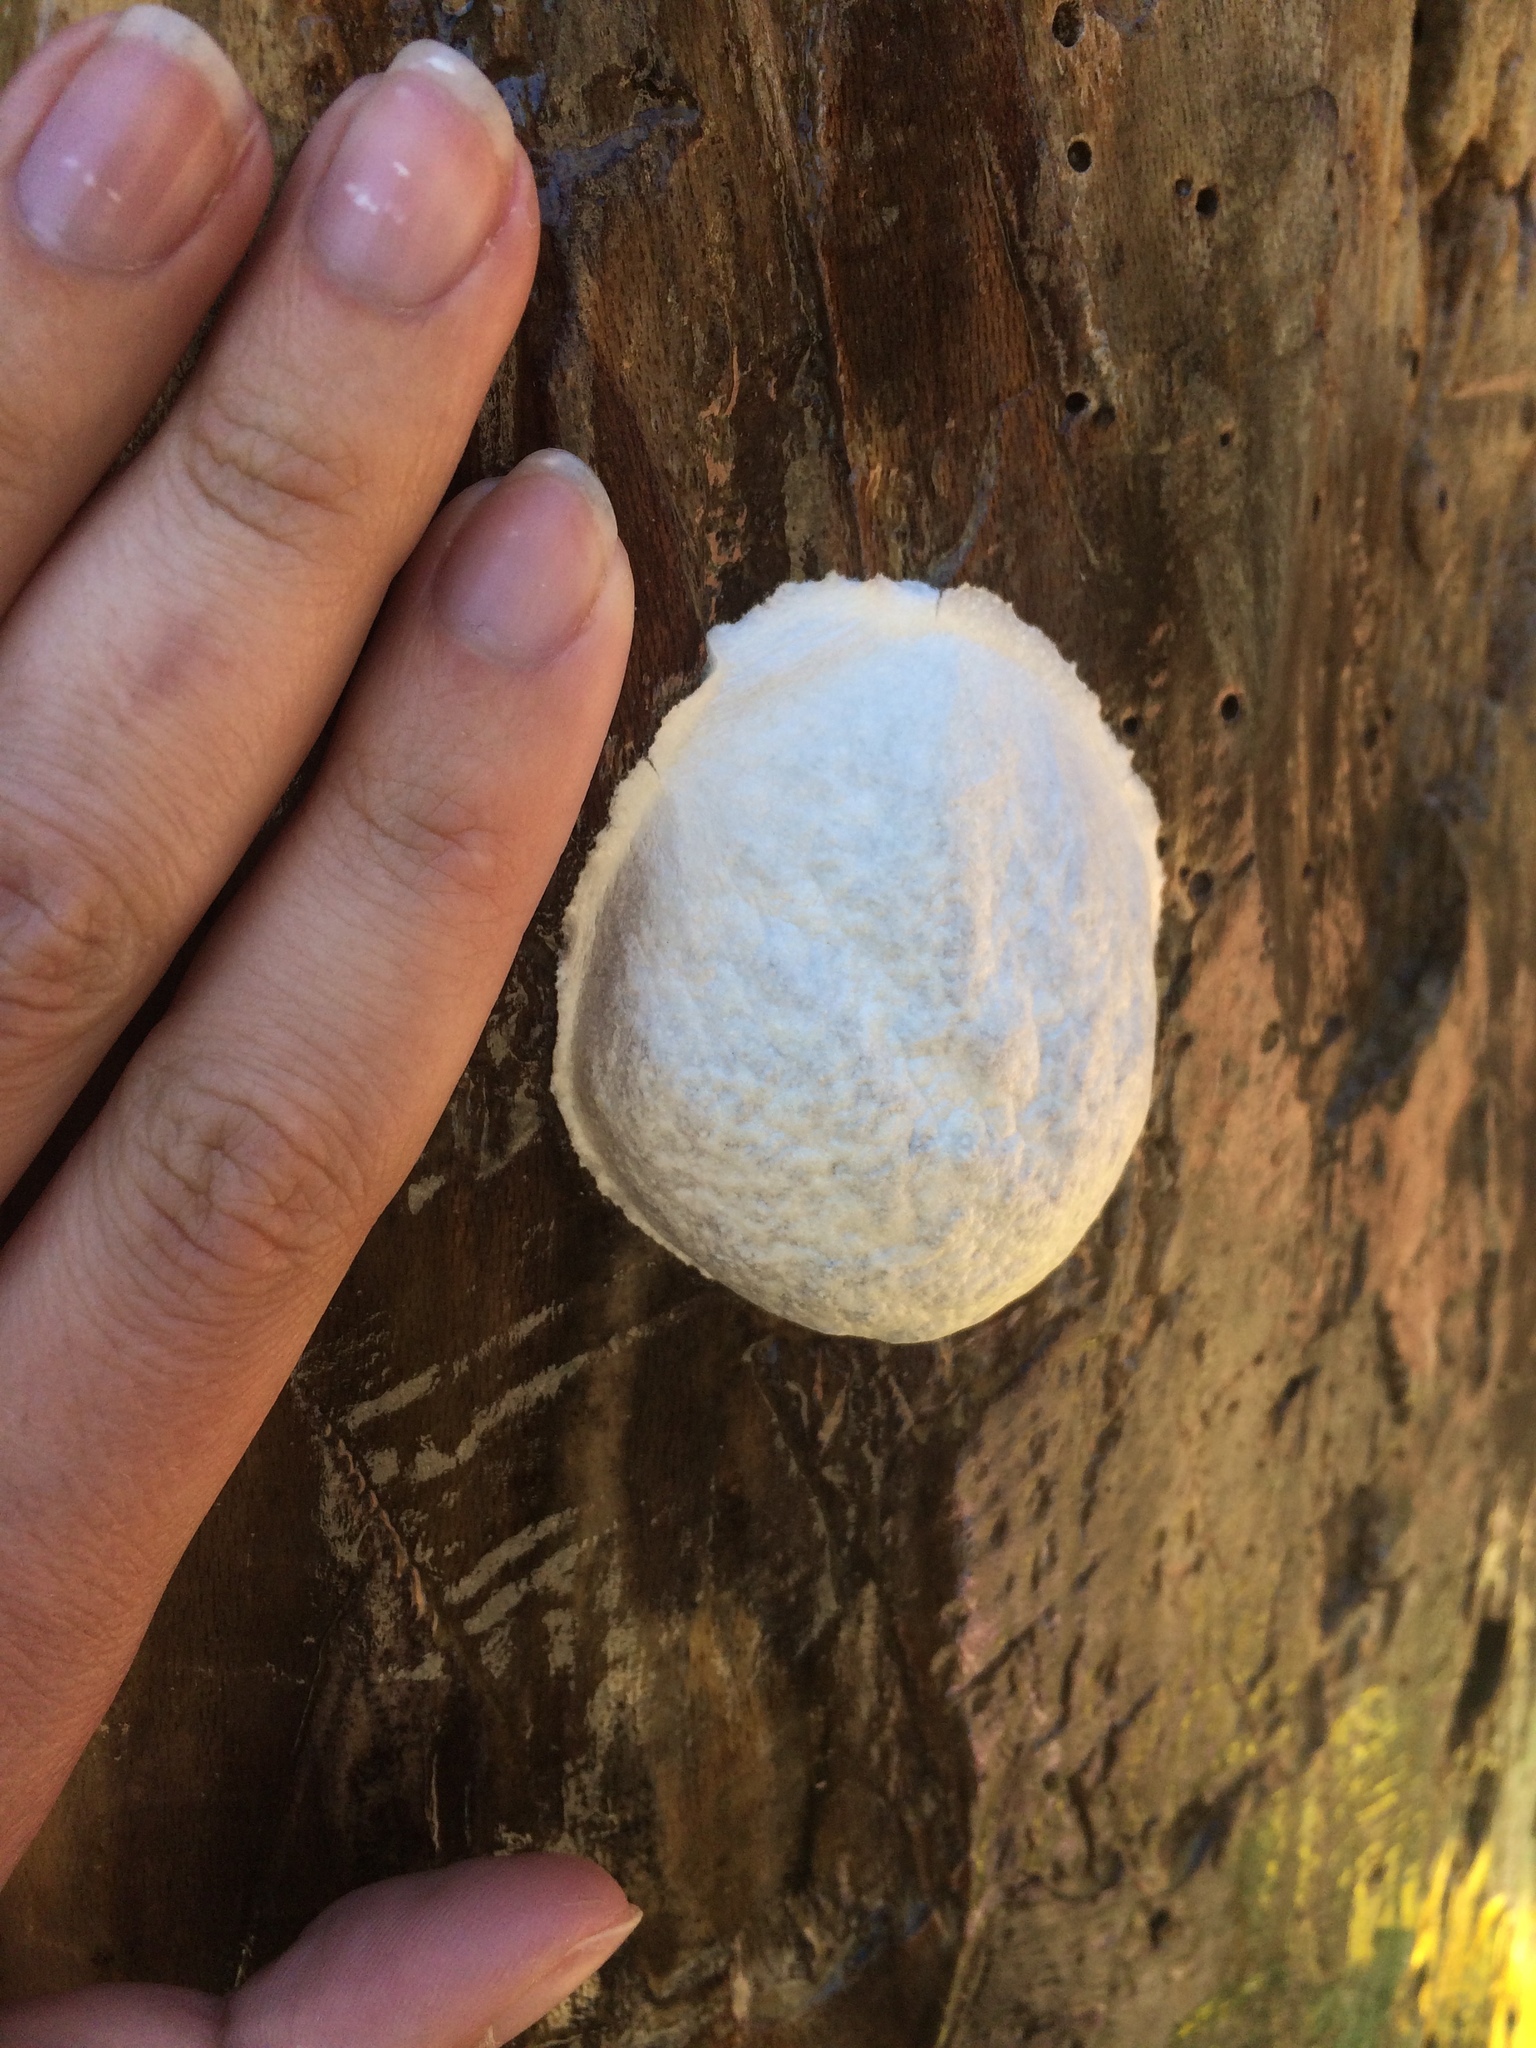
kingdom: Protozoa
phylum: Mycetozoa
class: Myxomycetes
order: Cribrariales
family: Tubiferaceae
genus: Reticularia
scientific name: Reticularia lycoperdon
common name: False puffball
